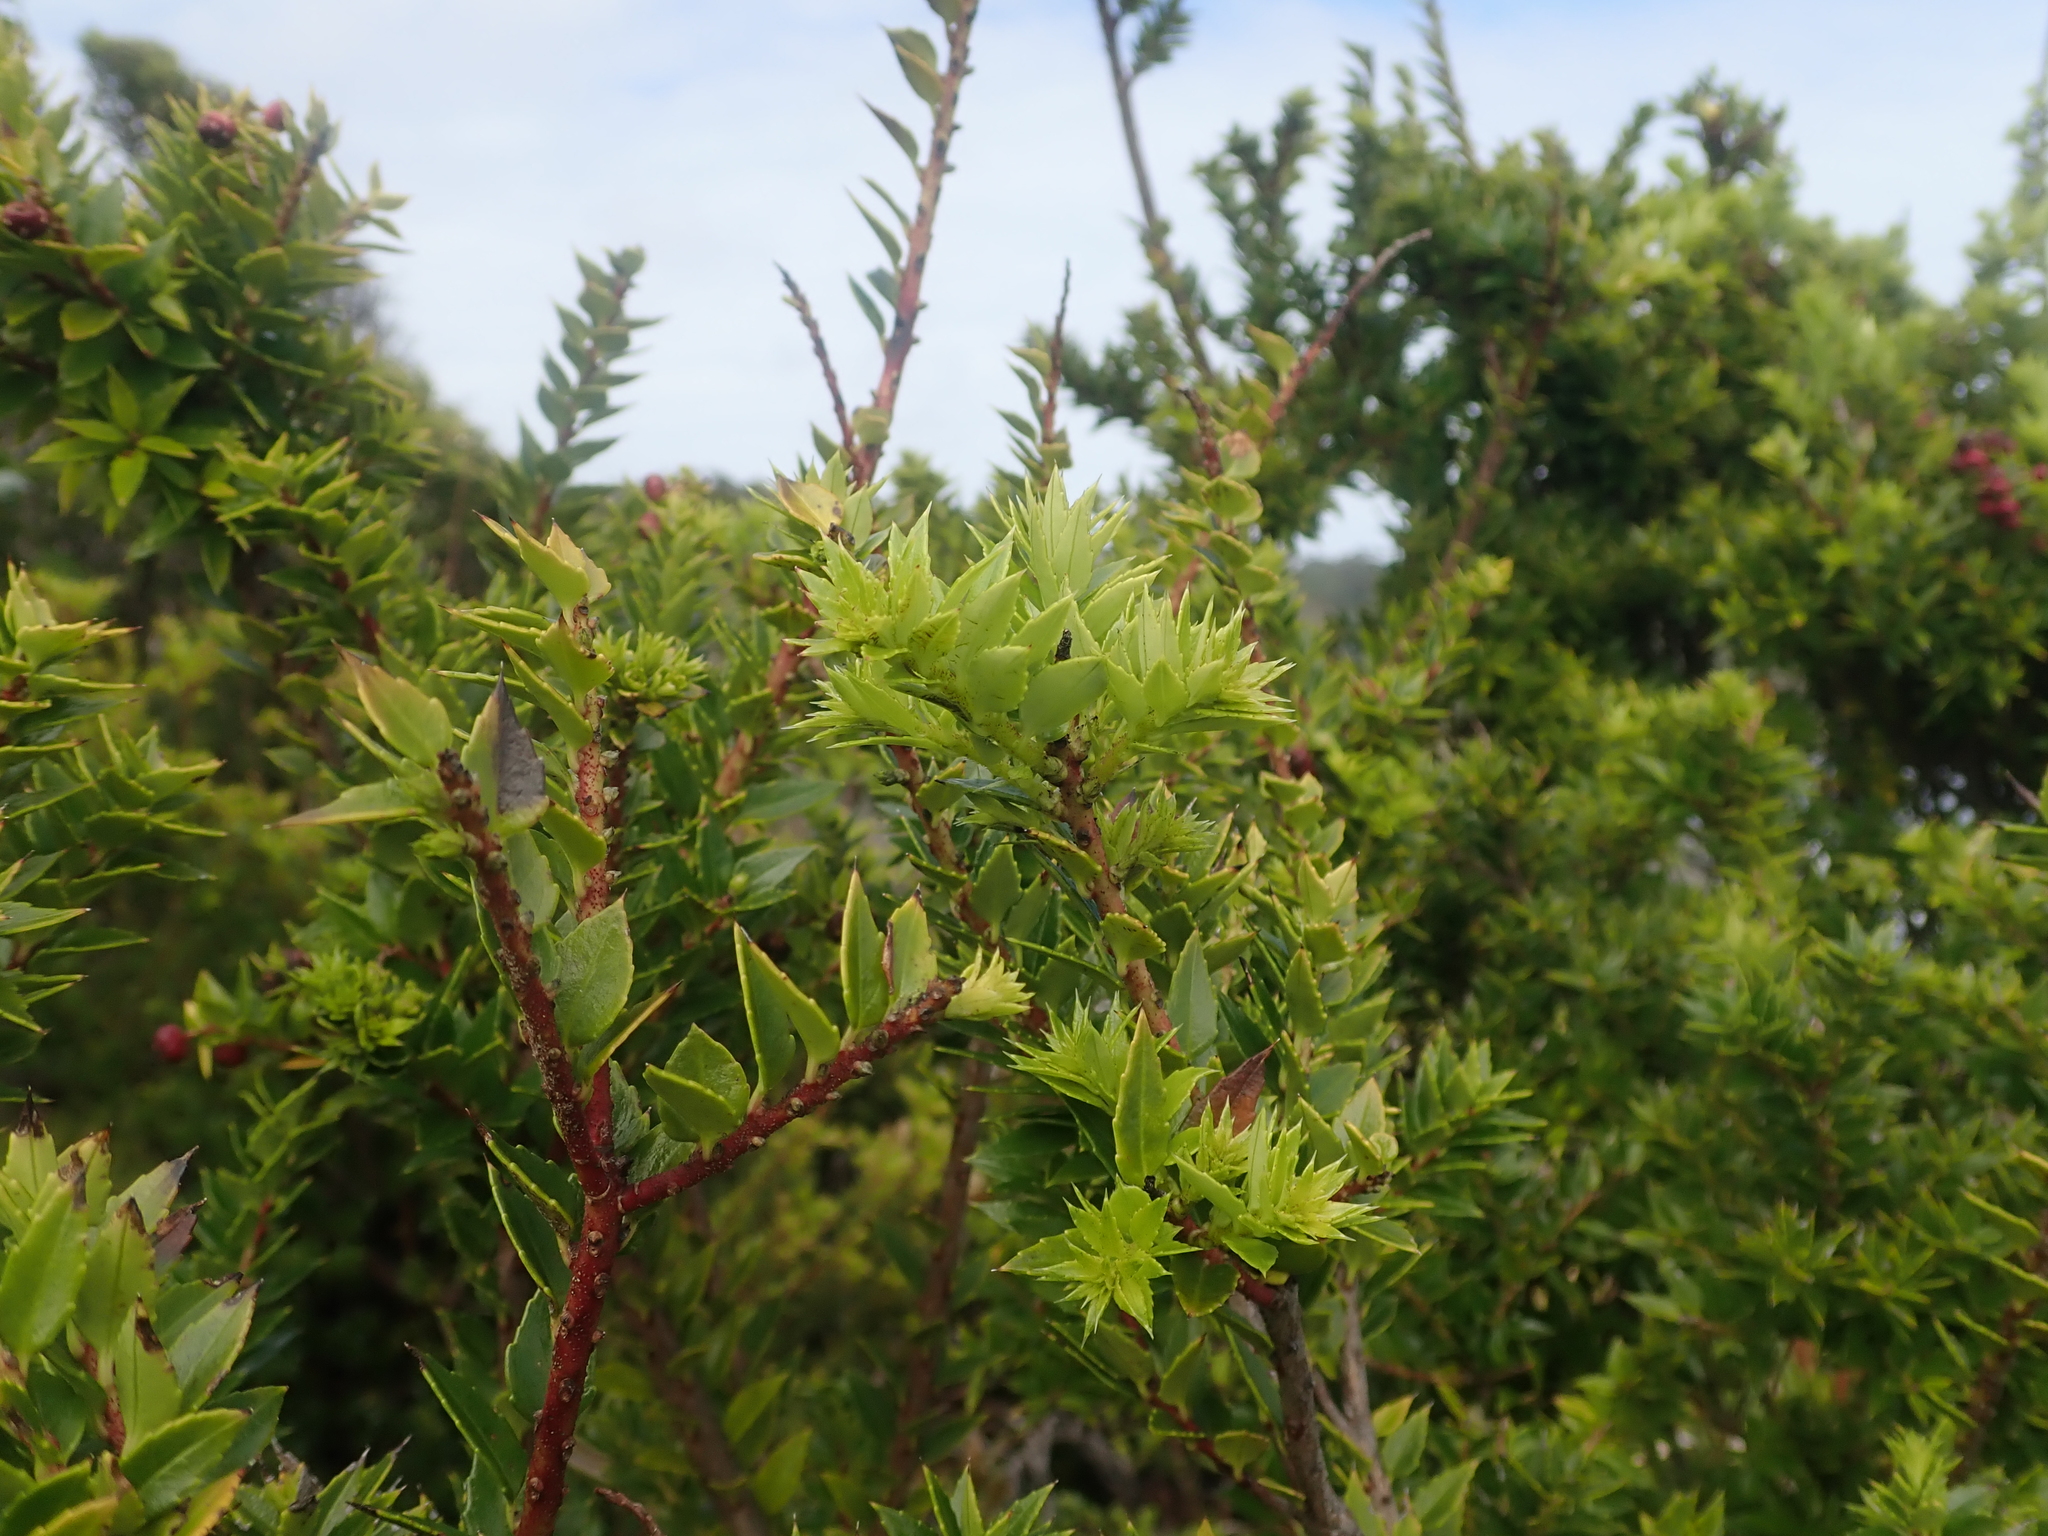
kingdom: Plantae
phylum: Tracheophyta
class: Magnoliopsida
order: Ericales
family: Ericaceae
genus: Gaultheria
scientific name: Gaultheria phillyreifolia
